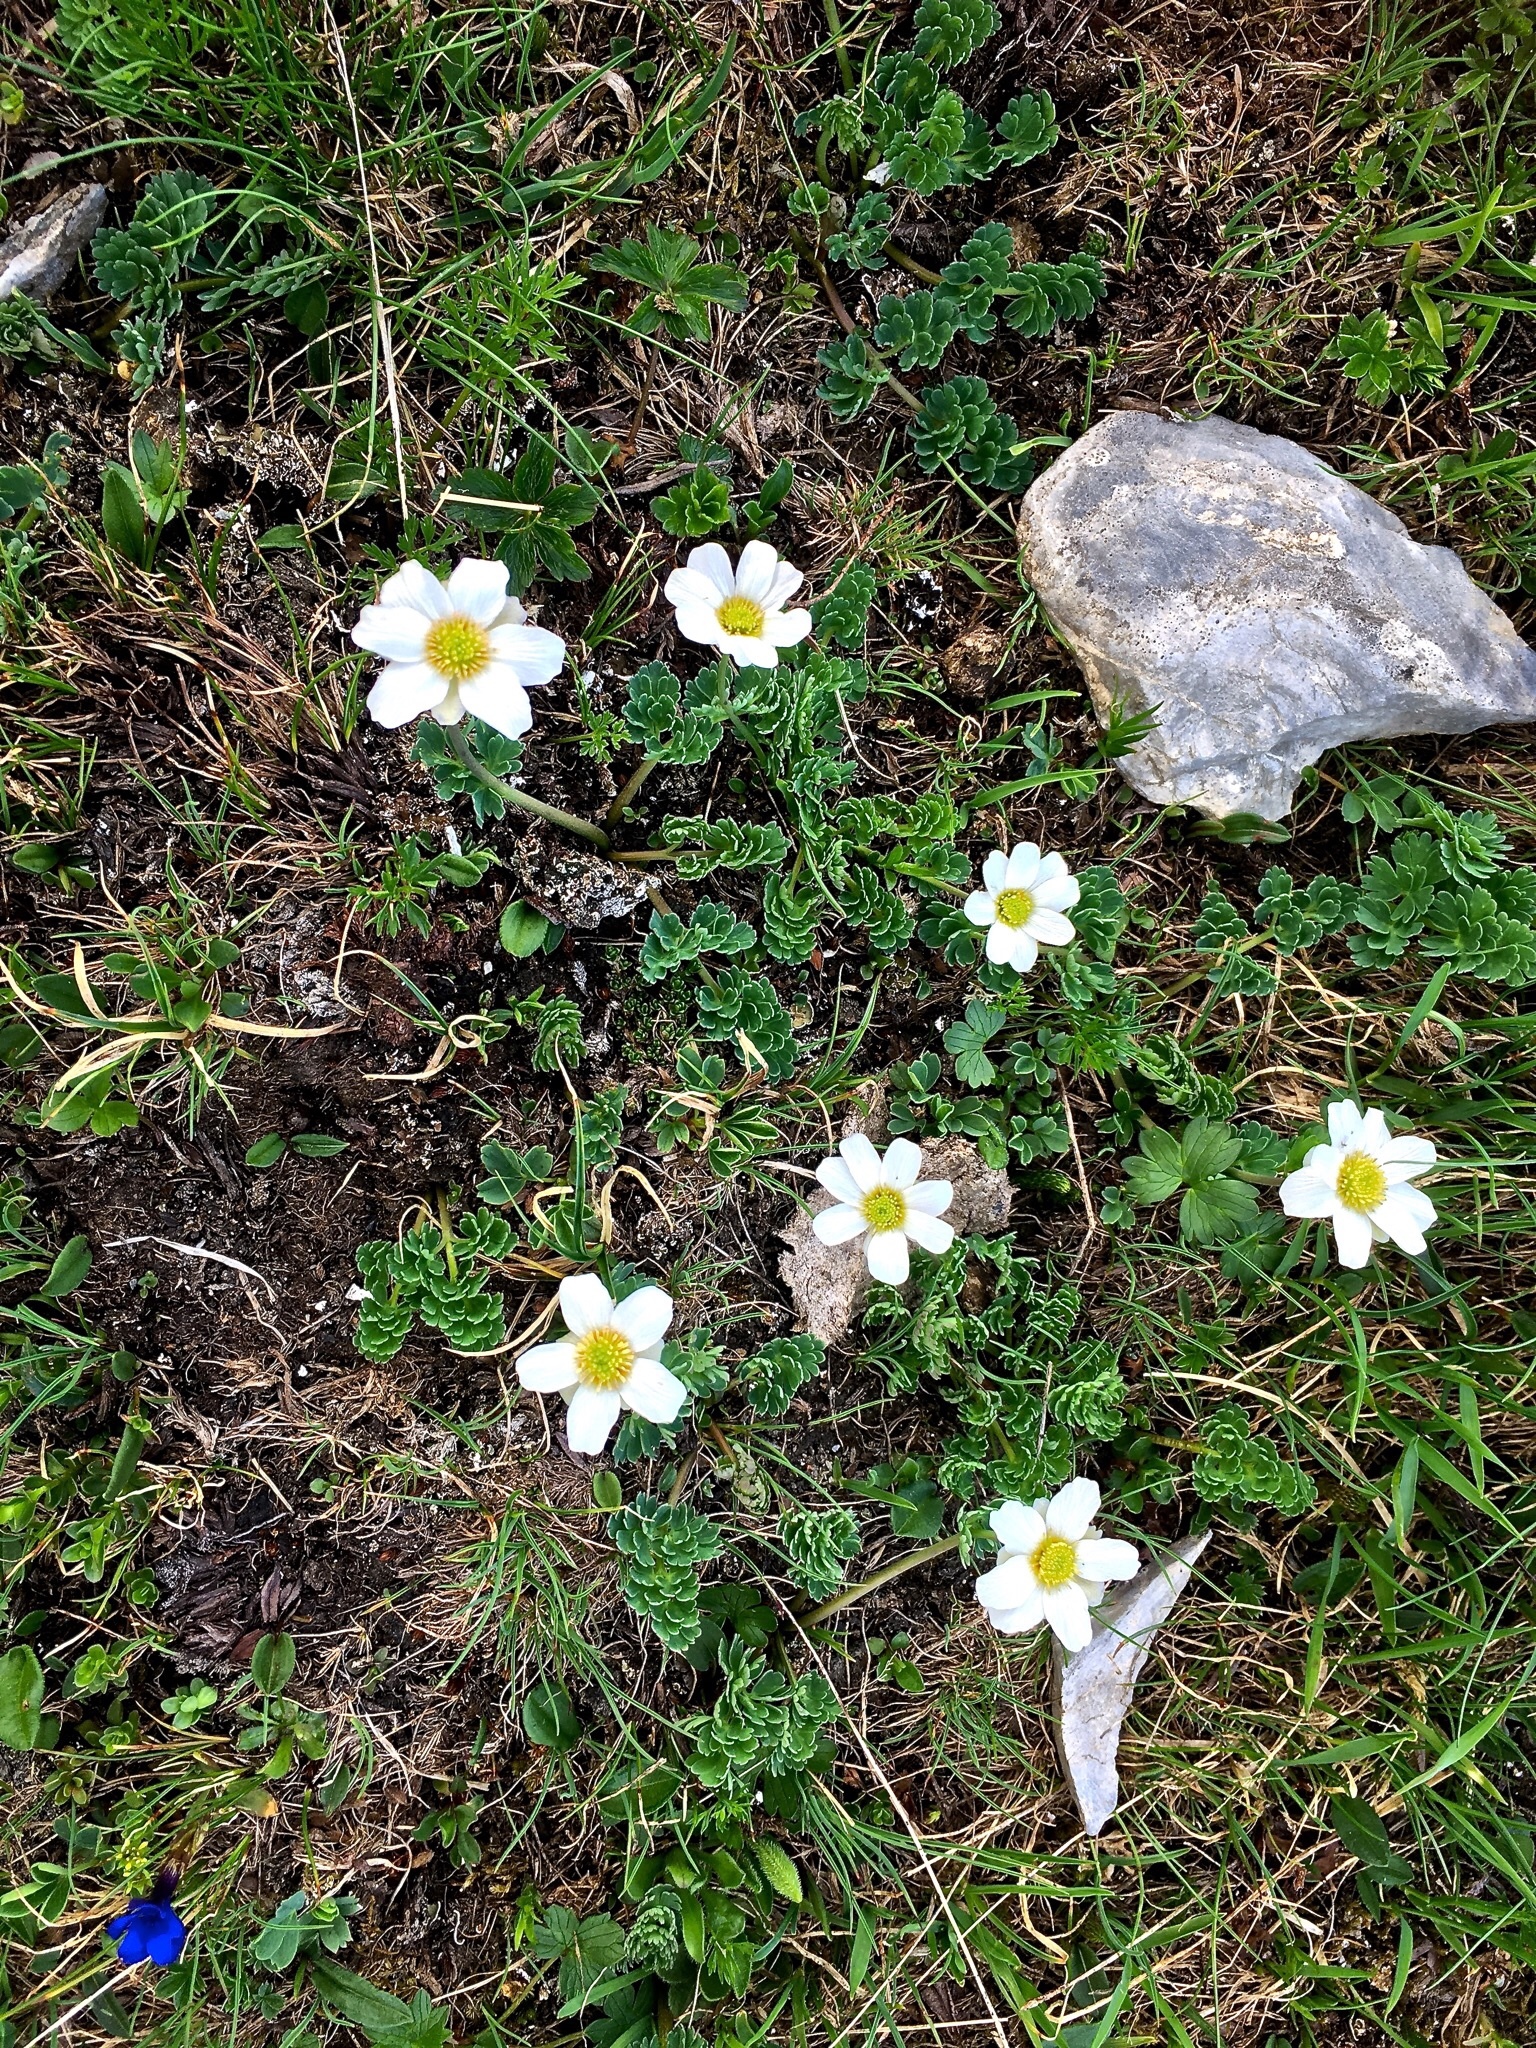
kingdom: Plantae
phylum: Tracheophyta
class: Magnoliopsida
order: Ranunculales
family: Ranunculaceae
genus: Callianthemum
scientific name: Callianthemum coriandrifolium
